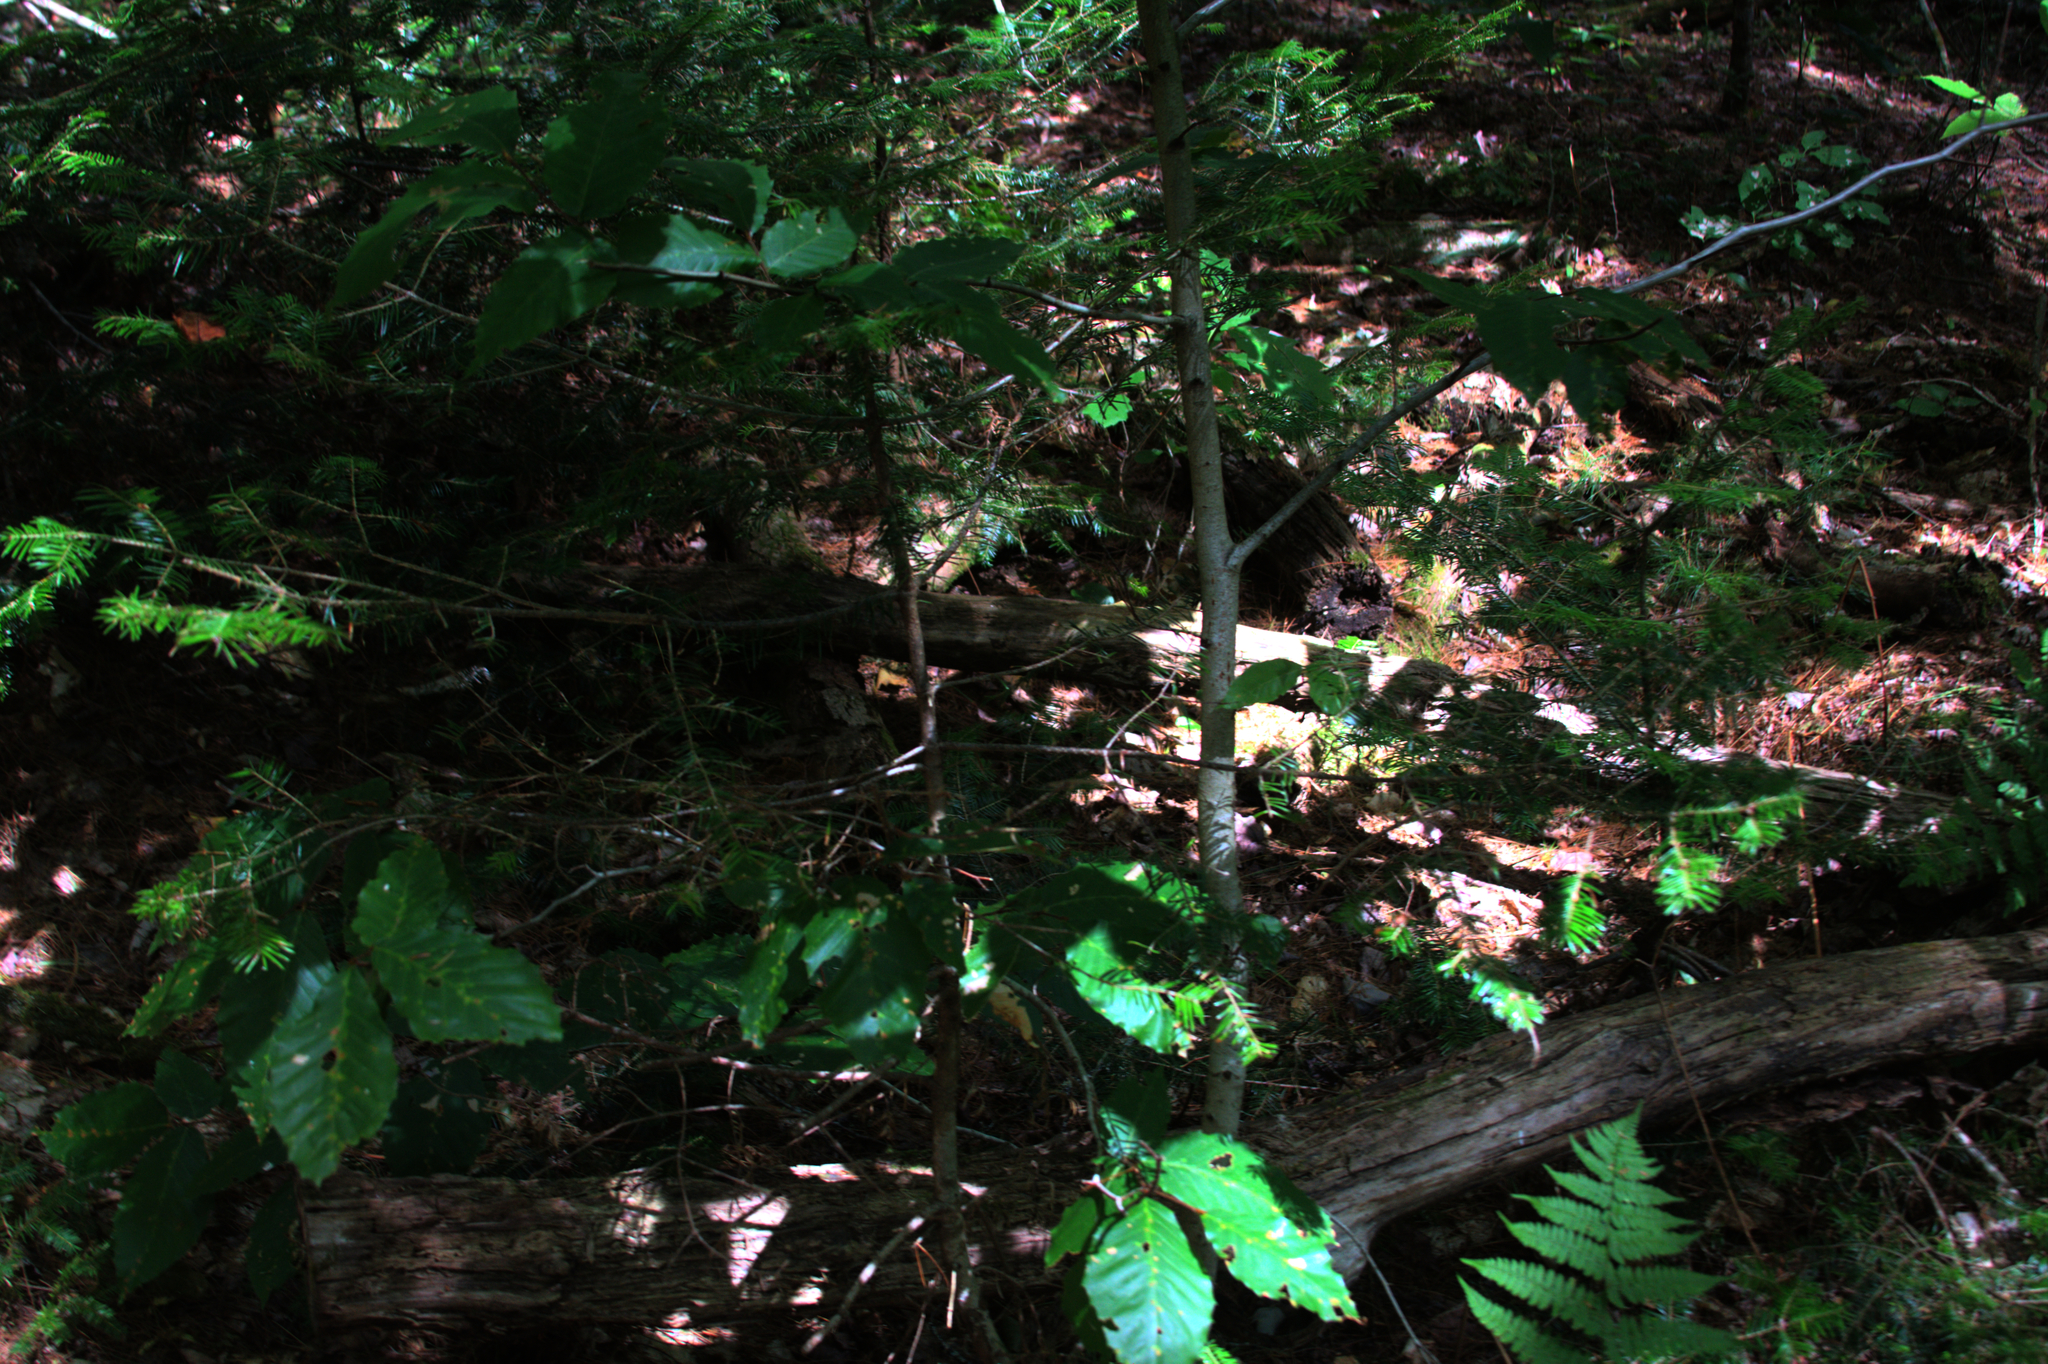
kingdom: Plantae
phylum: Tracheophyta
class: Magnoliopsida
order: Fagales
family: Fagaceae
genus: Fagus
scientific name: Fagus grandifolia
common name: American beech
